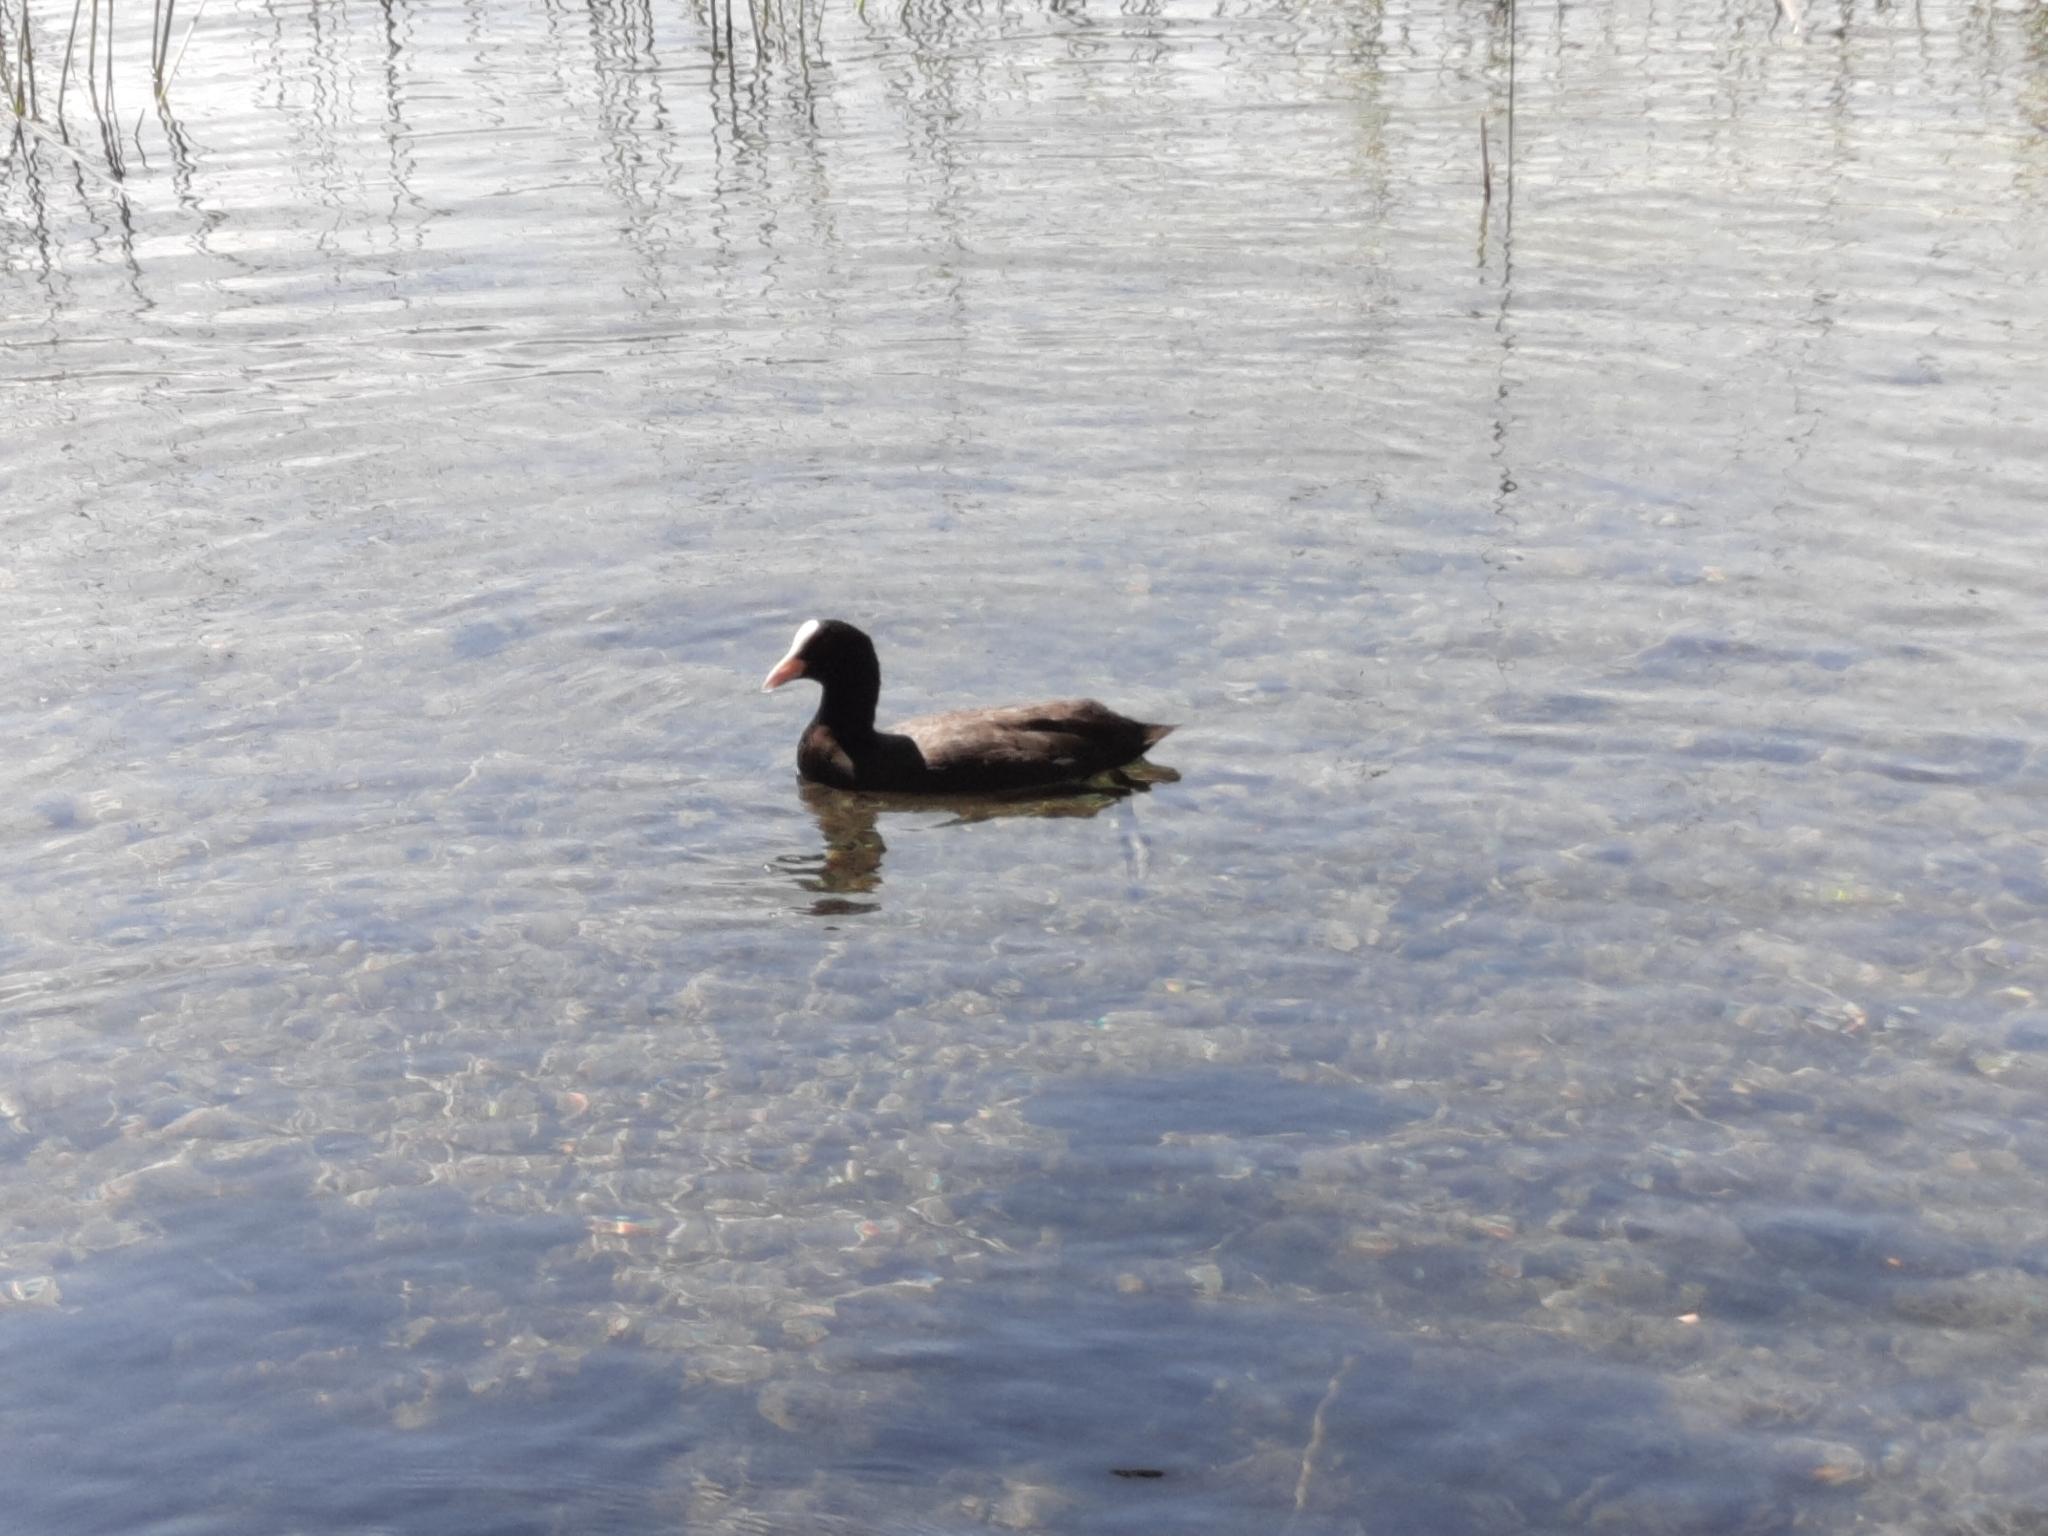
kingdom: Animalia
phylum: Chordata
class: Aves
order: Gruiformes
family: Rallidae
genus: Fulica
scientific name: Fulica atra
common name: Eurasian coot
